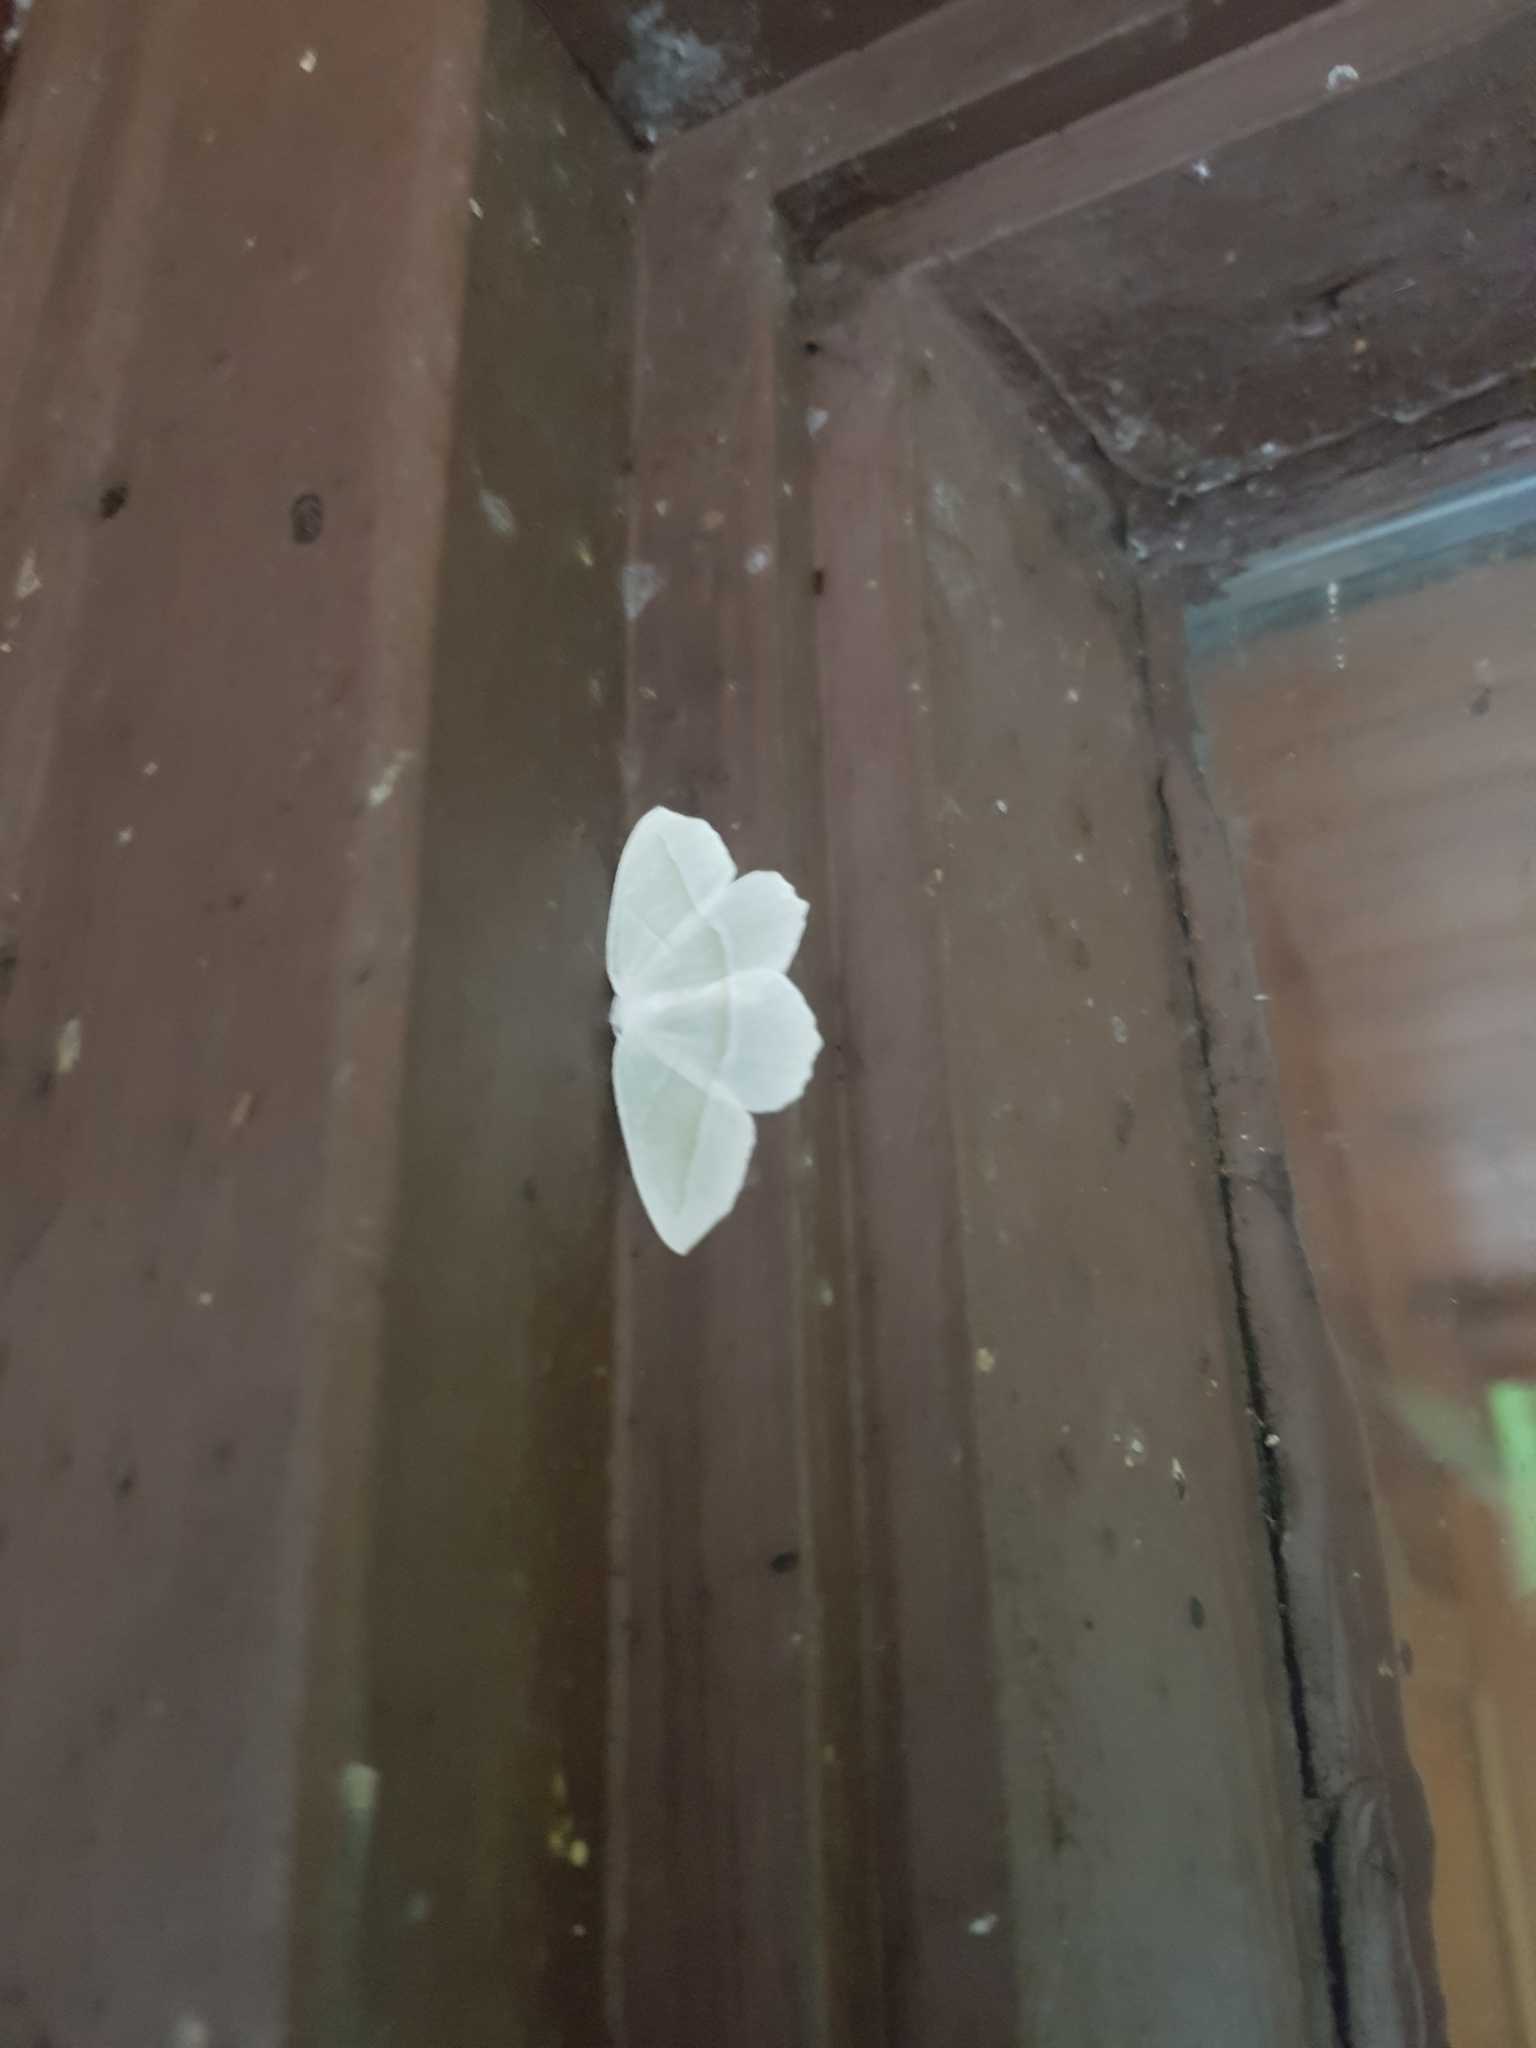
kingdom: Animalia
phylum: Arthropoda
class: Insecta
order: Lepidoptera
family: Geometridae
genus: Campaea
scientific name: Campaea perlata
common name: Fringed looper
